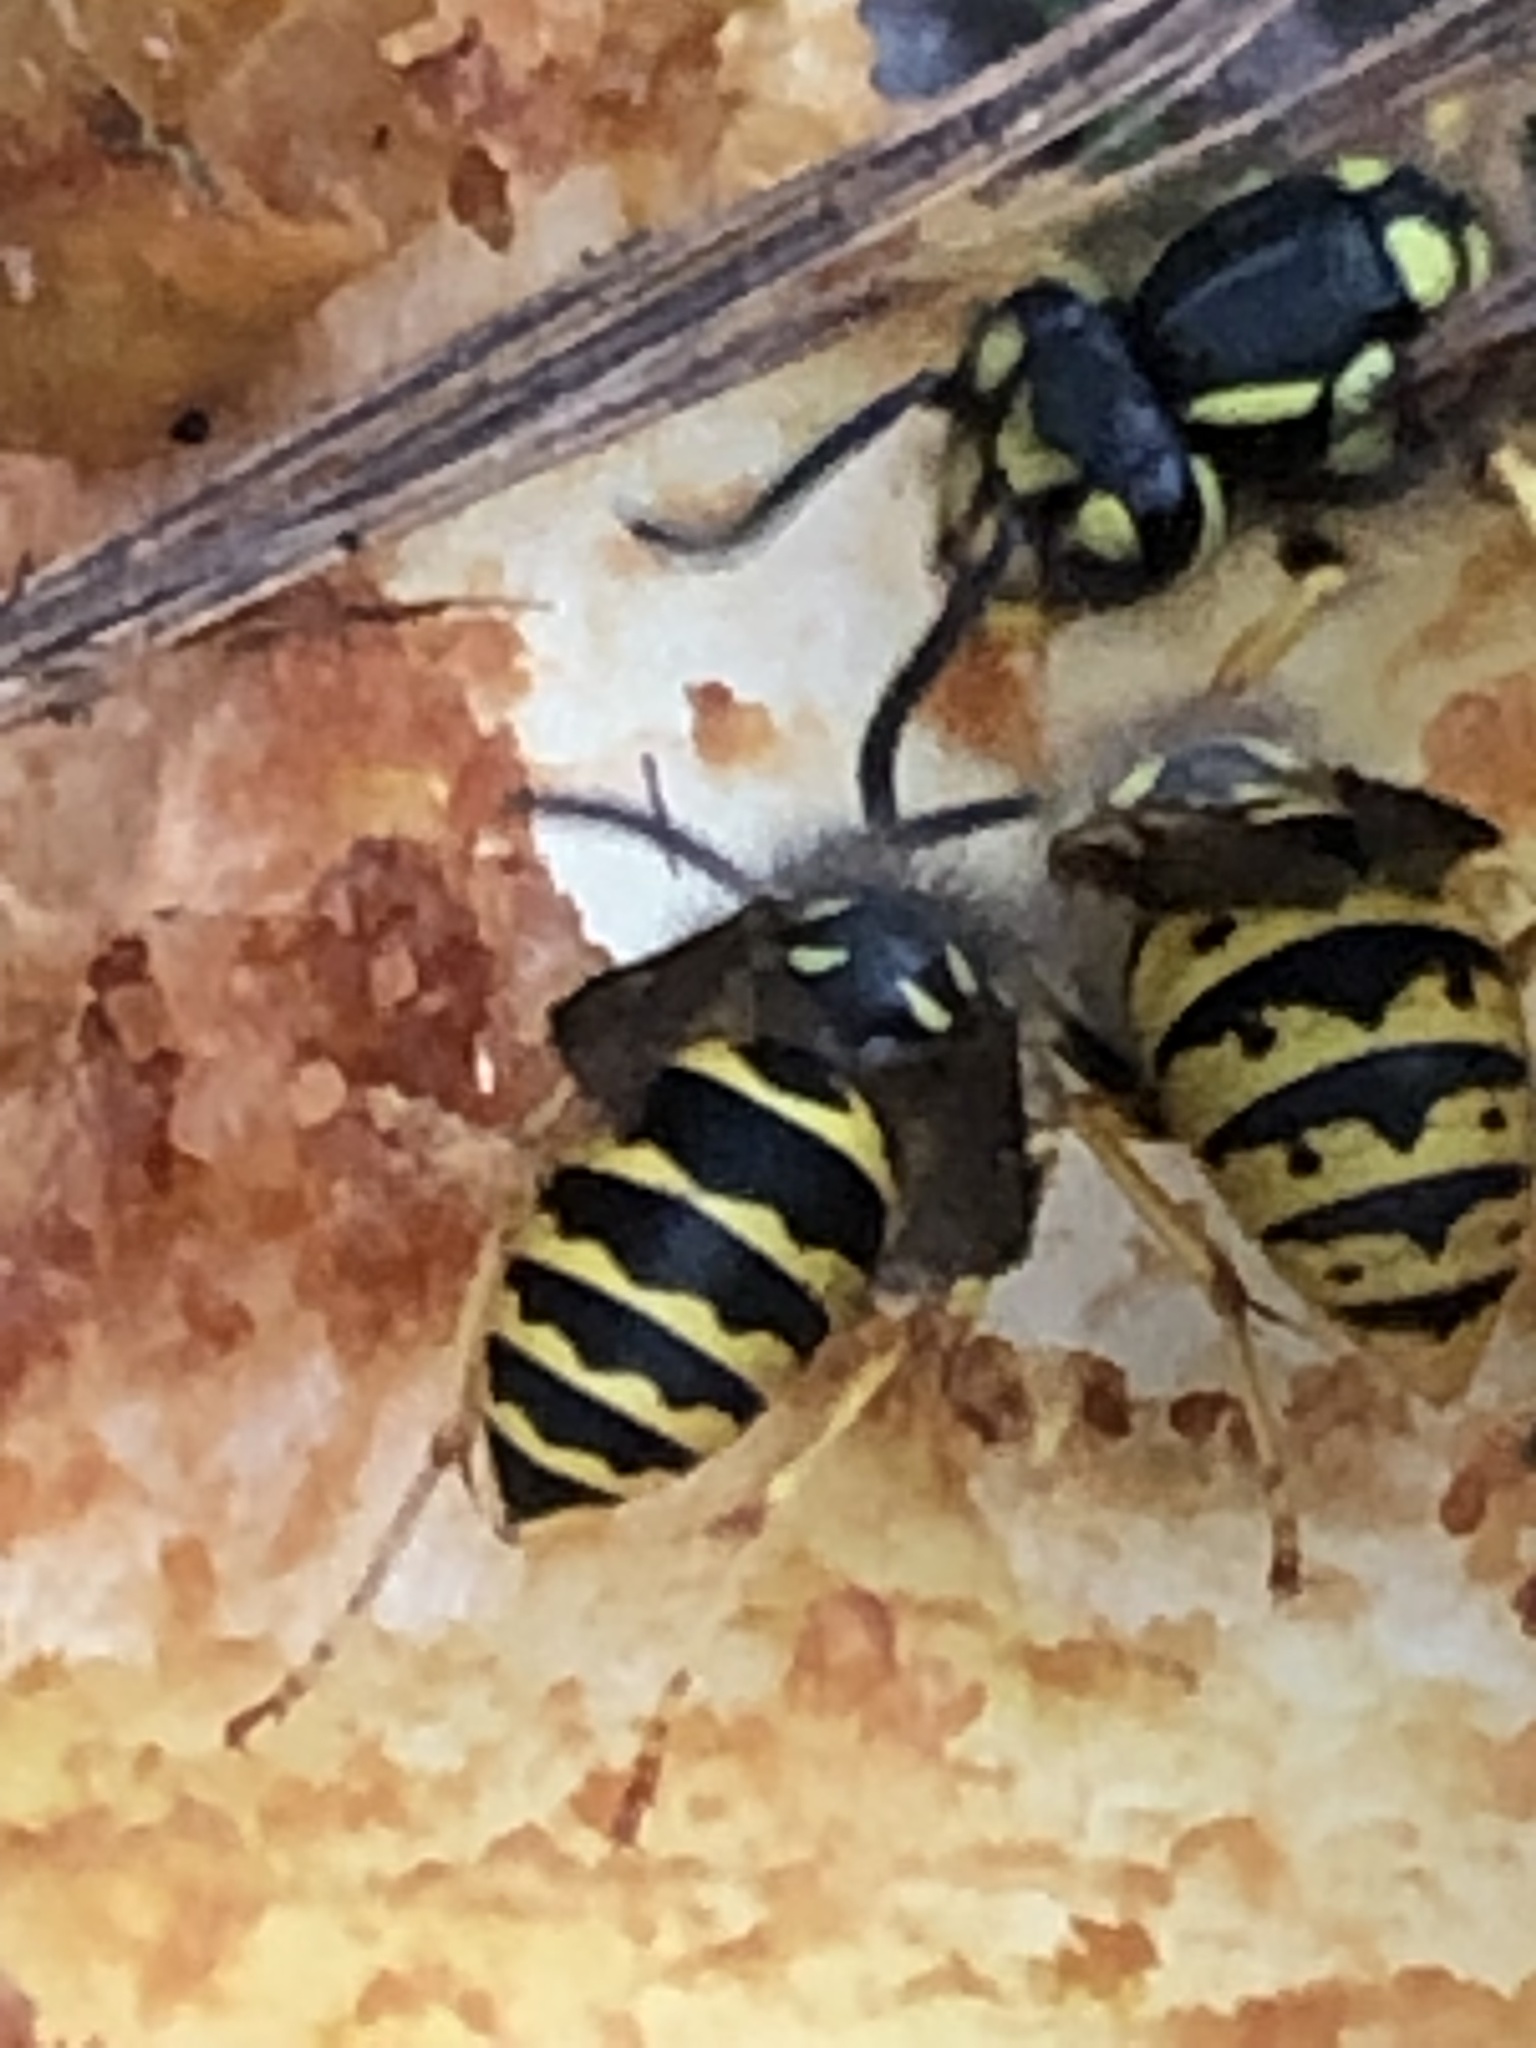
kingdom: Animalia
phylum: Arthropoda
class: Insecta
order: Hymenoptera
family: Vespidae
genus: Vespula
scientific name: Vespula alascensis
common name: Alaska yellowjacket
